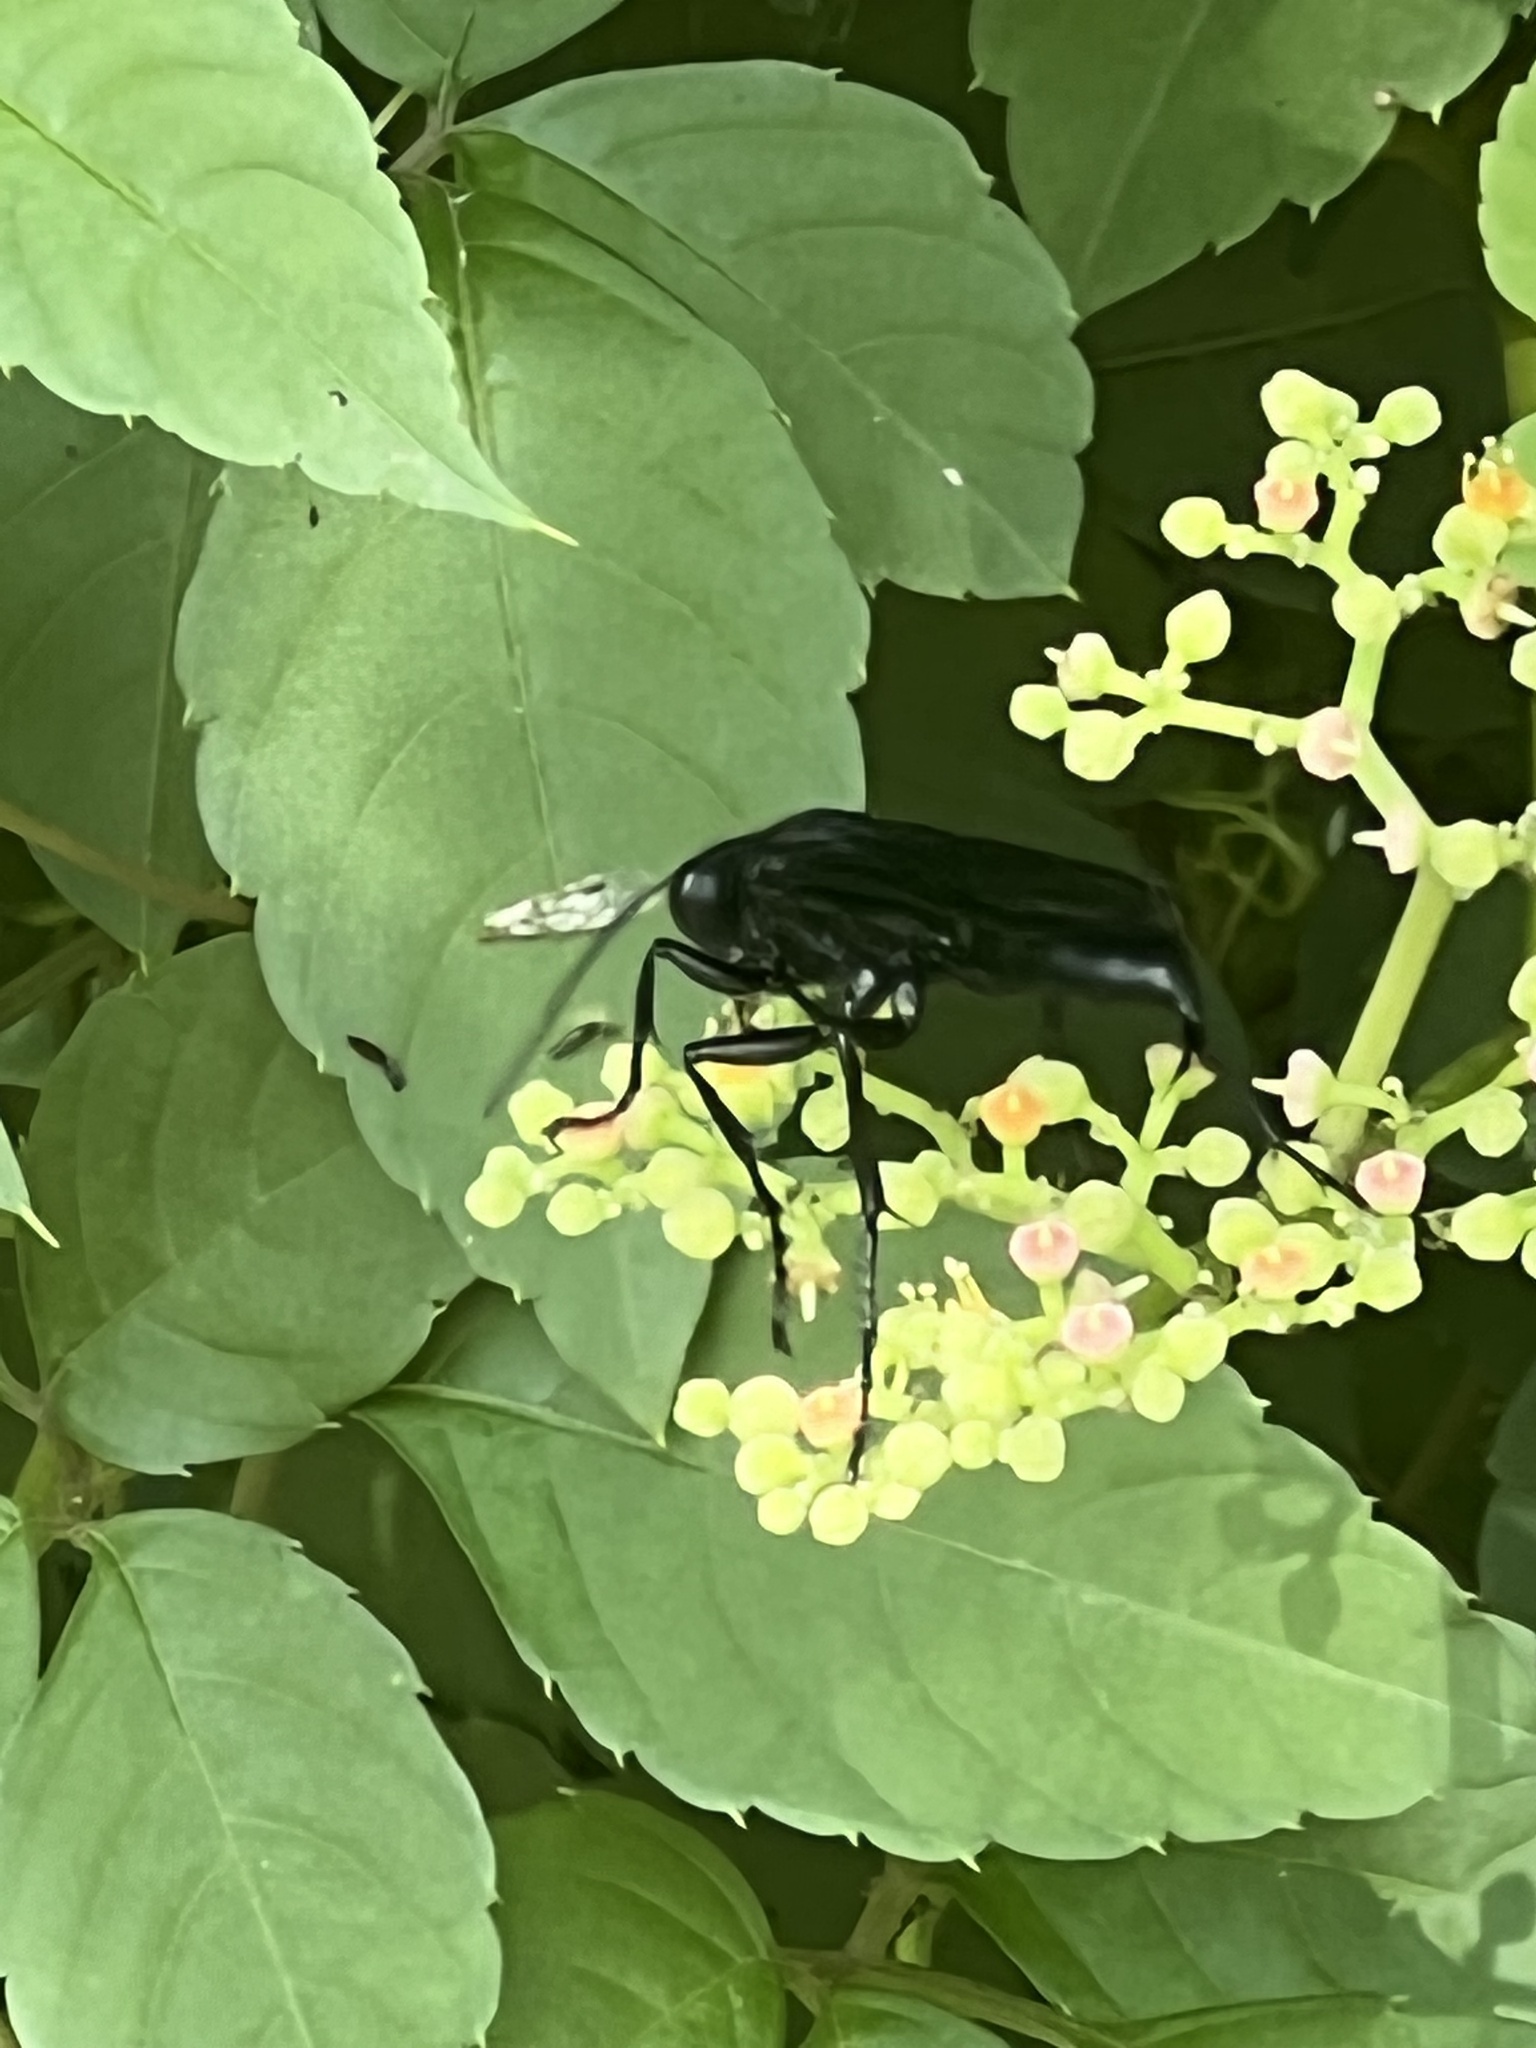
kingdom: Animalia
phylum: Arthropoda
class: Insecta
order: Hymenoptera
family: Sphecidae
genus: Sphex
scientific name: Sphex pensylvanicus
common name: Great black digger wasp
